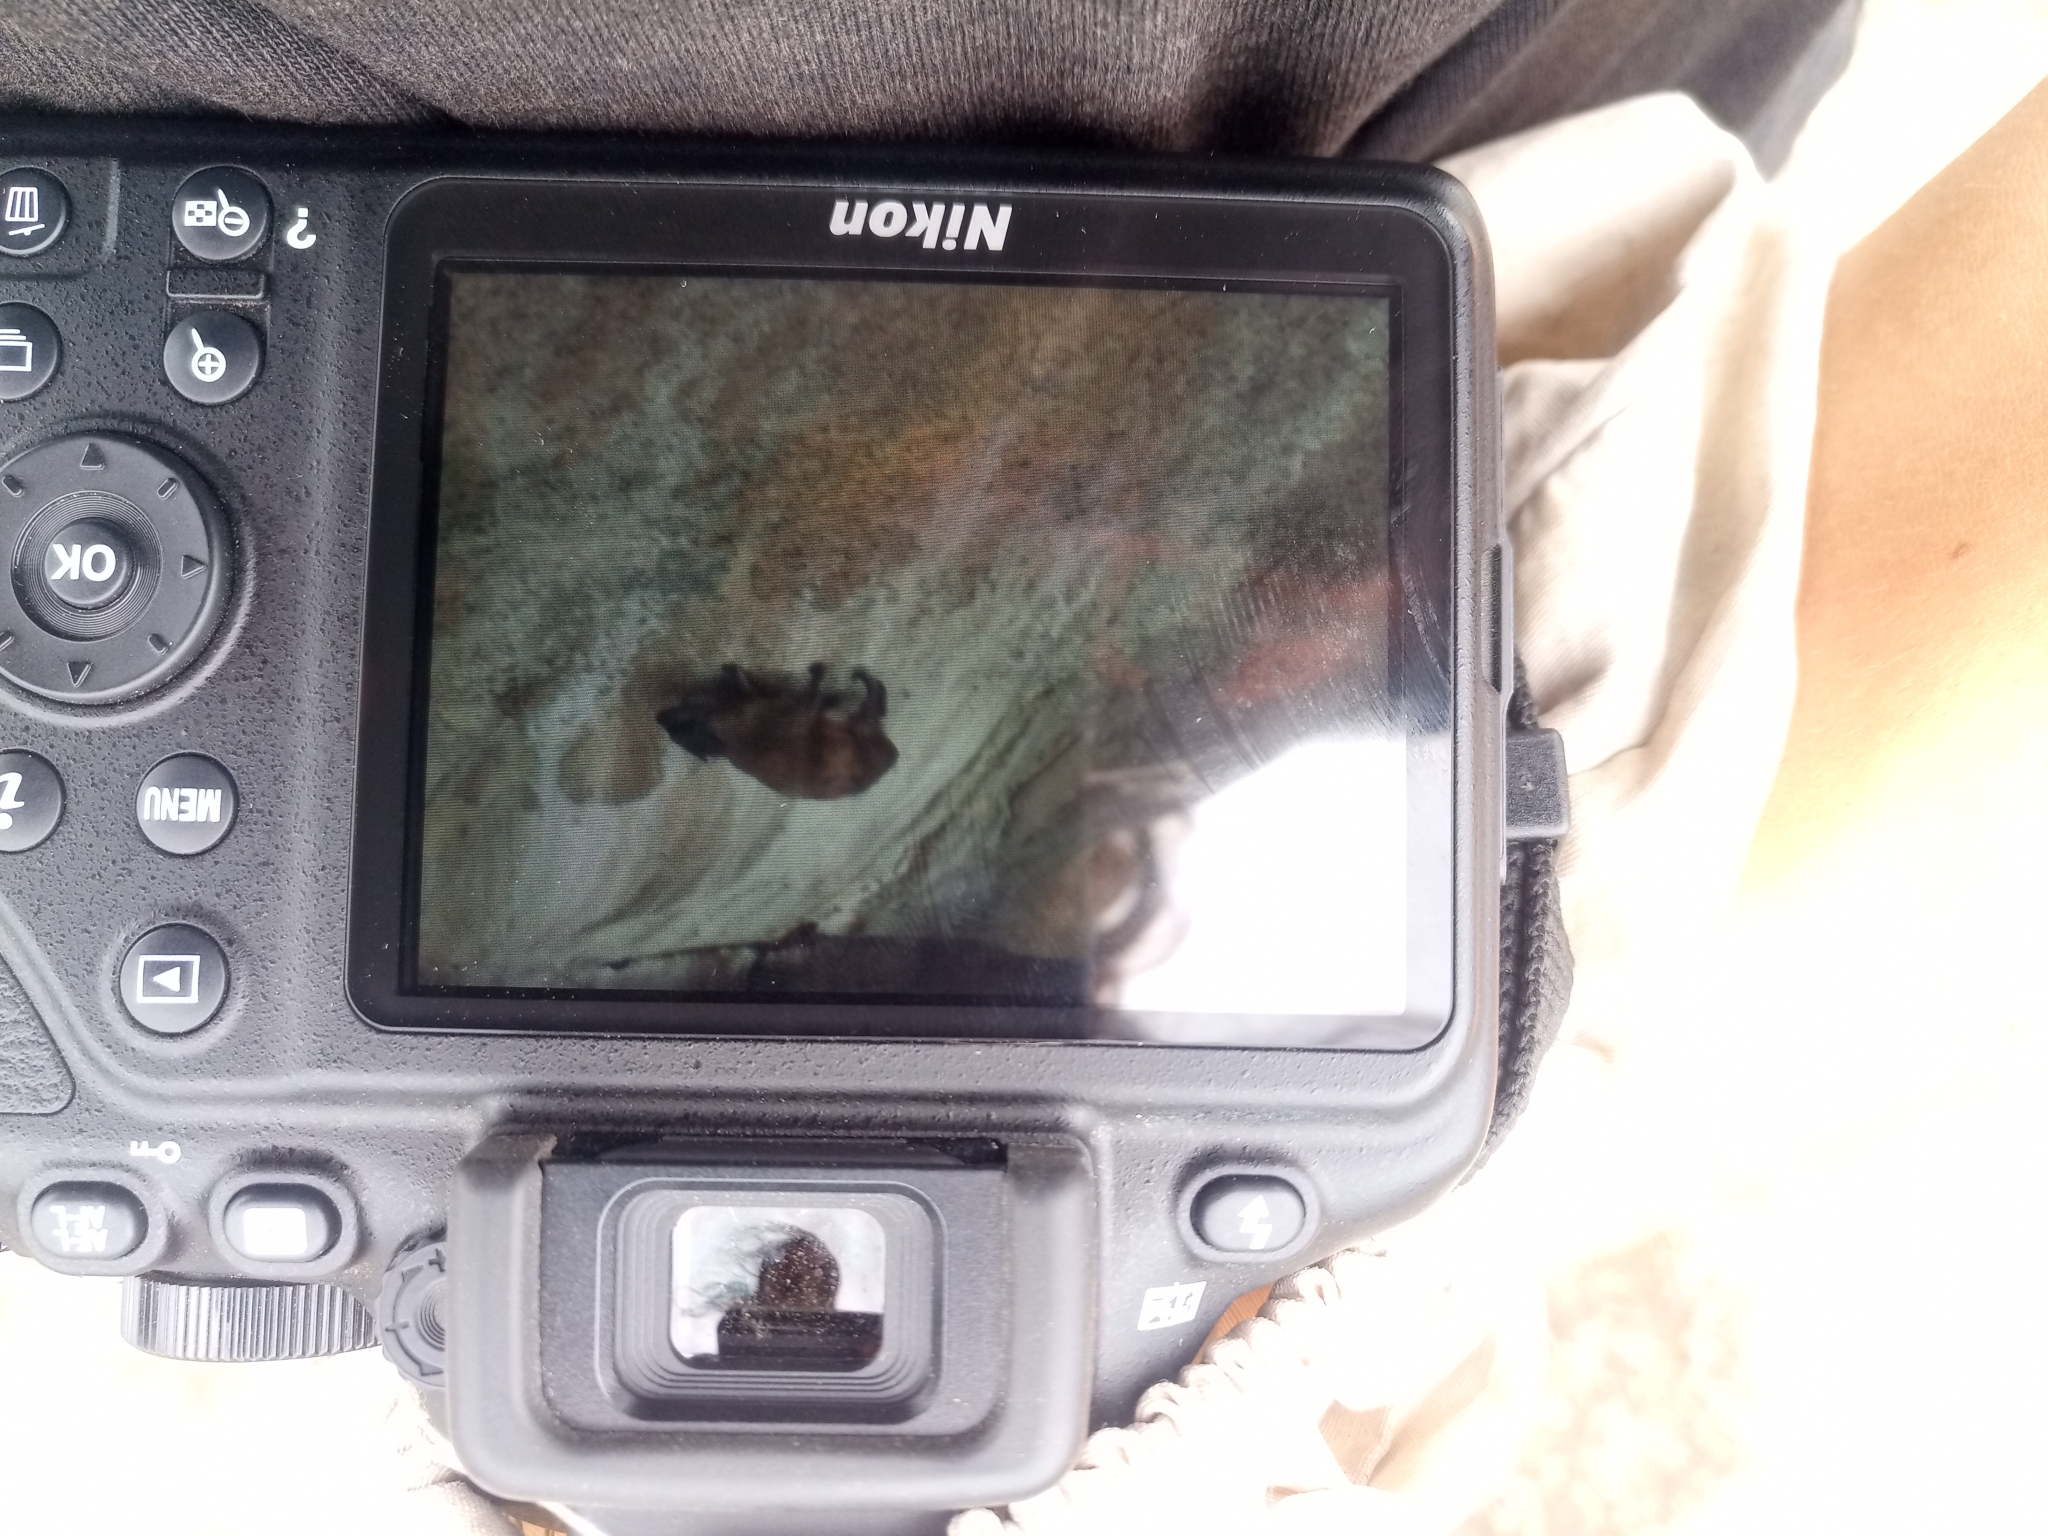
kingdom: Animalia
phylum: Chordata
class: Mammalia
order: Hyracoidea
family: Procaviidae
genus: Procavia
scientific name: Procavia capensis
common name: Rock hyrax
